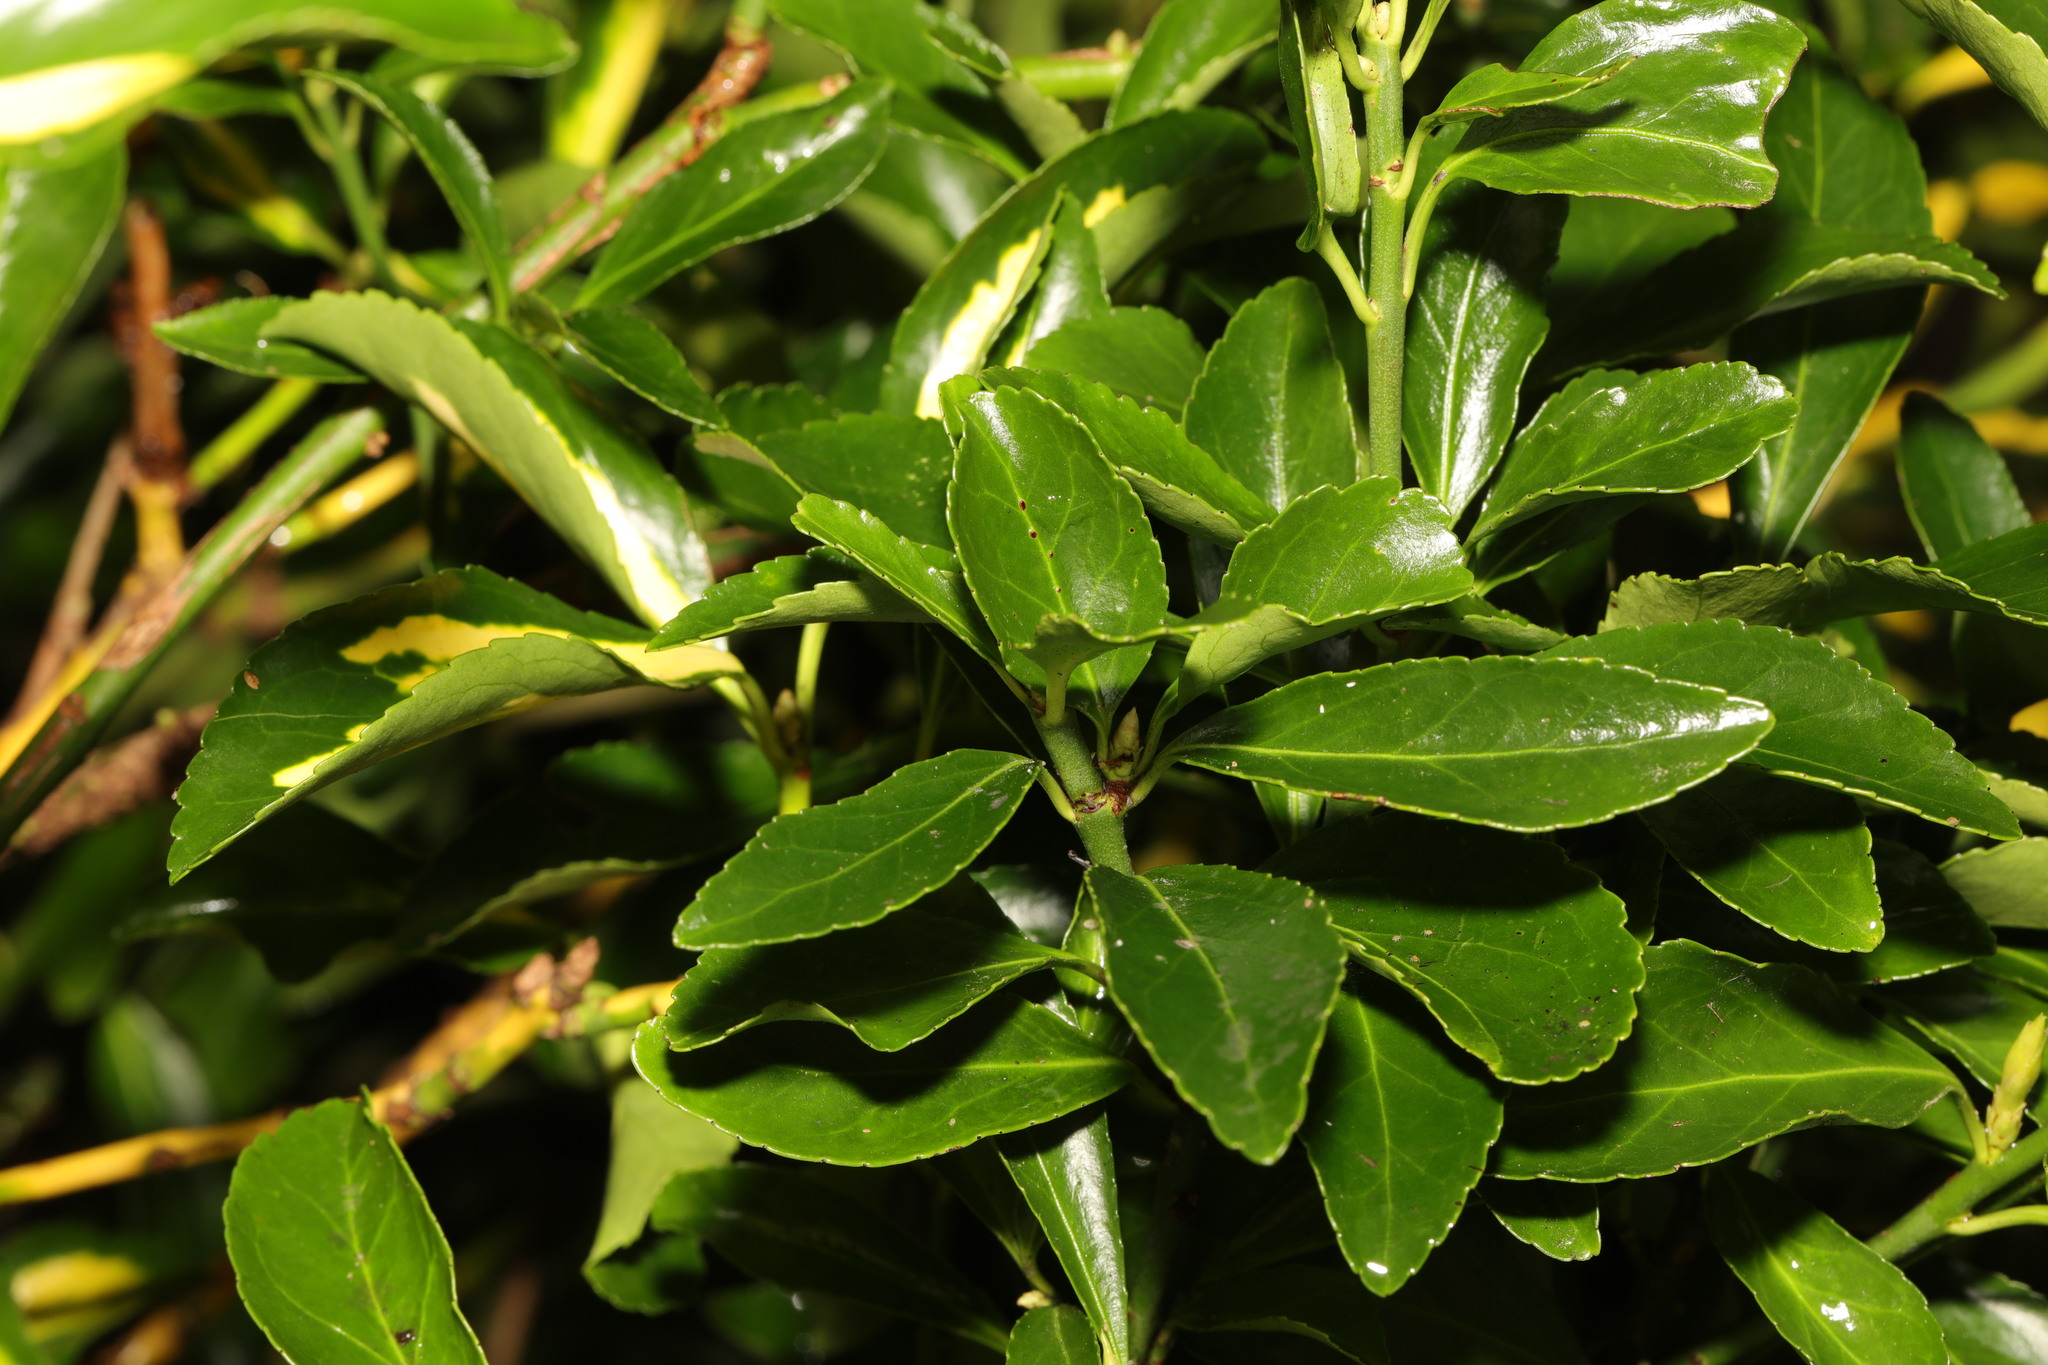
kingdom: Plantae
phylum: Tracheophyta
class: Magnoliopsida
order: Celastrales
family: Celastraceae
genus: Euonymus
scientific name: Euonymus japonicus
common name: Japanese spindletree
